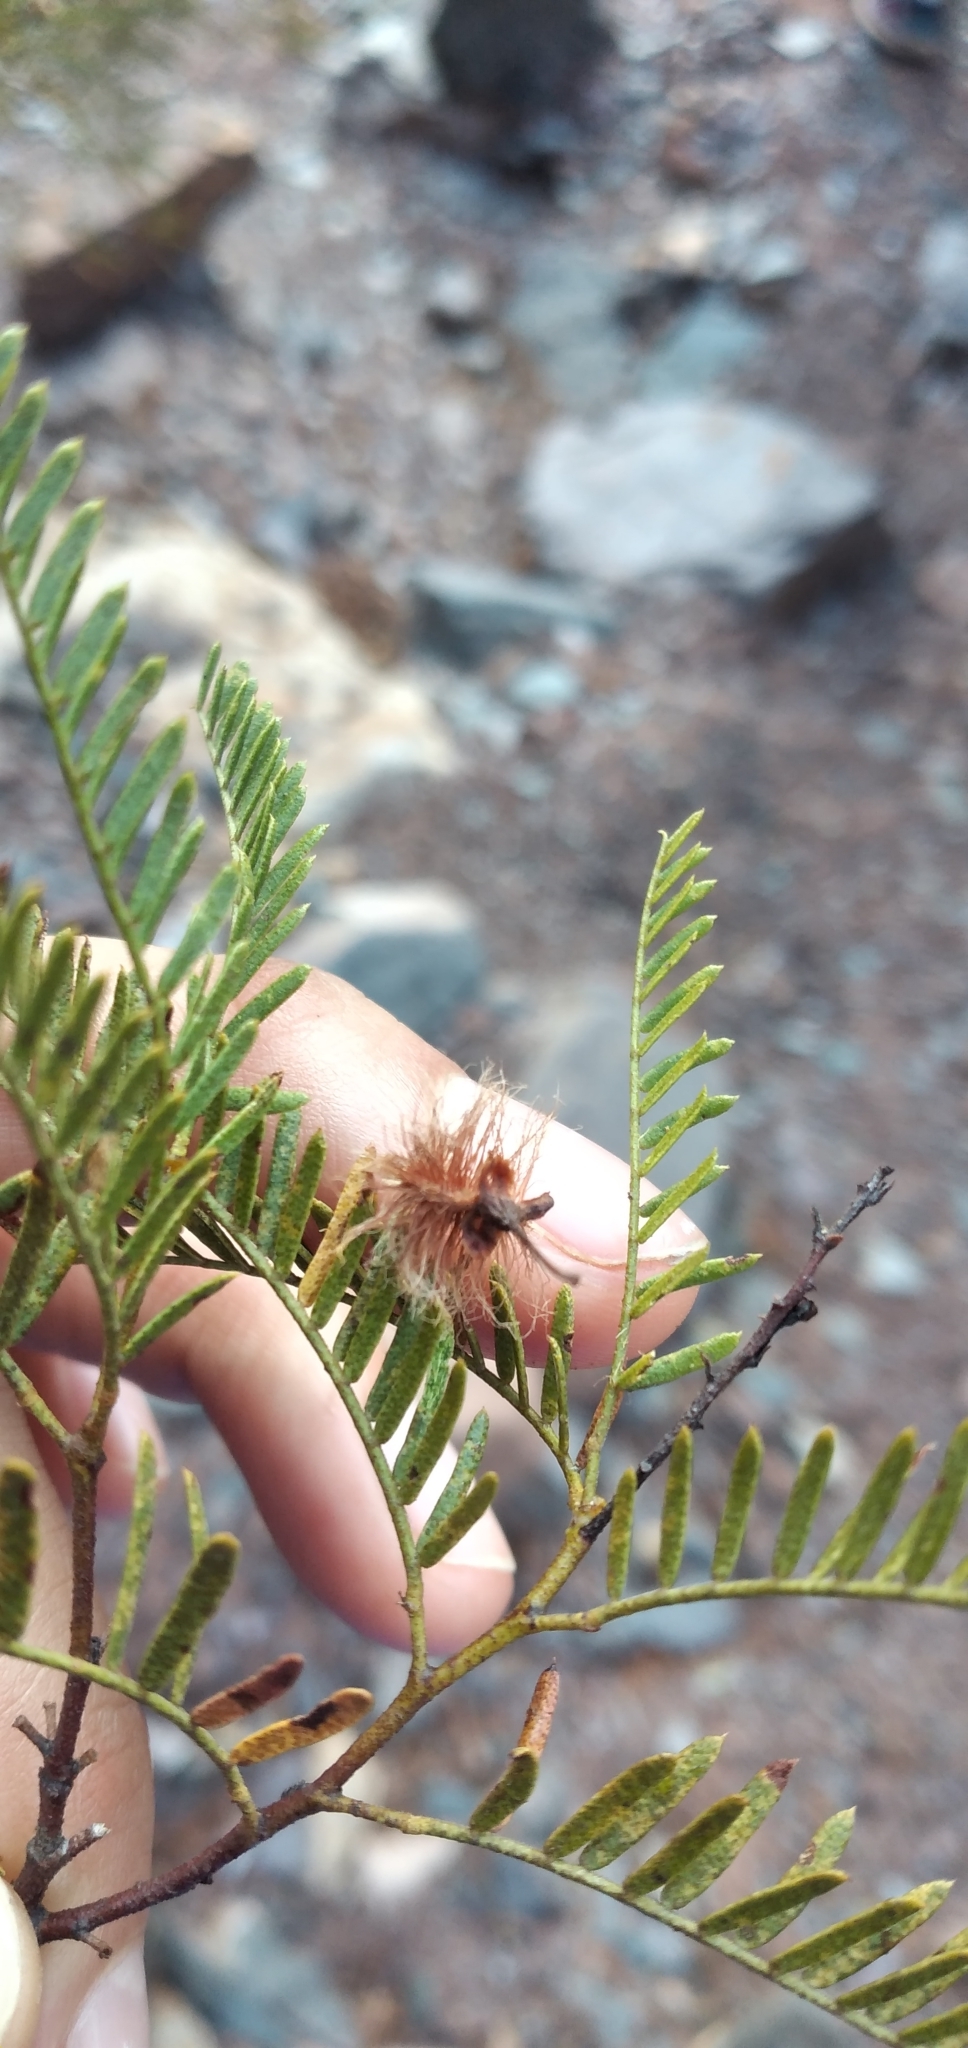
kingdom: Plantae
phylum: Tracheophyta
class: Magnoliopsida
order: Fabales
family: Fabaceae
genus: Zuccagnia
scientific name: Zuccagnia punctata
